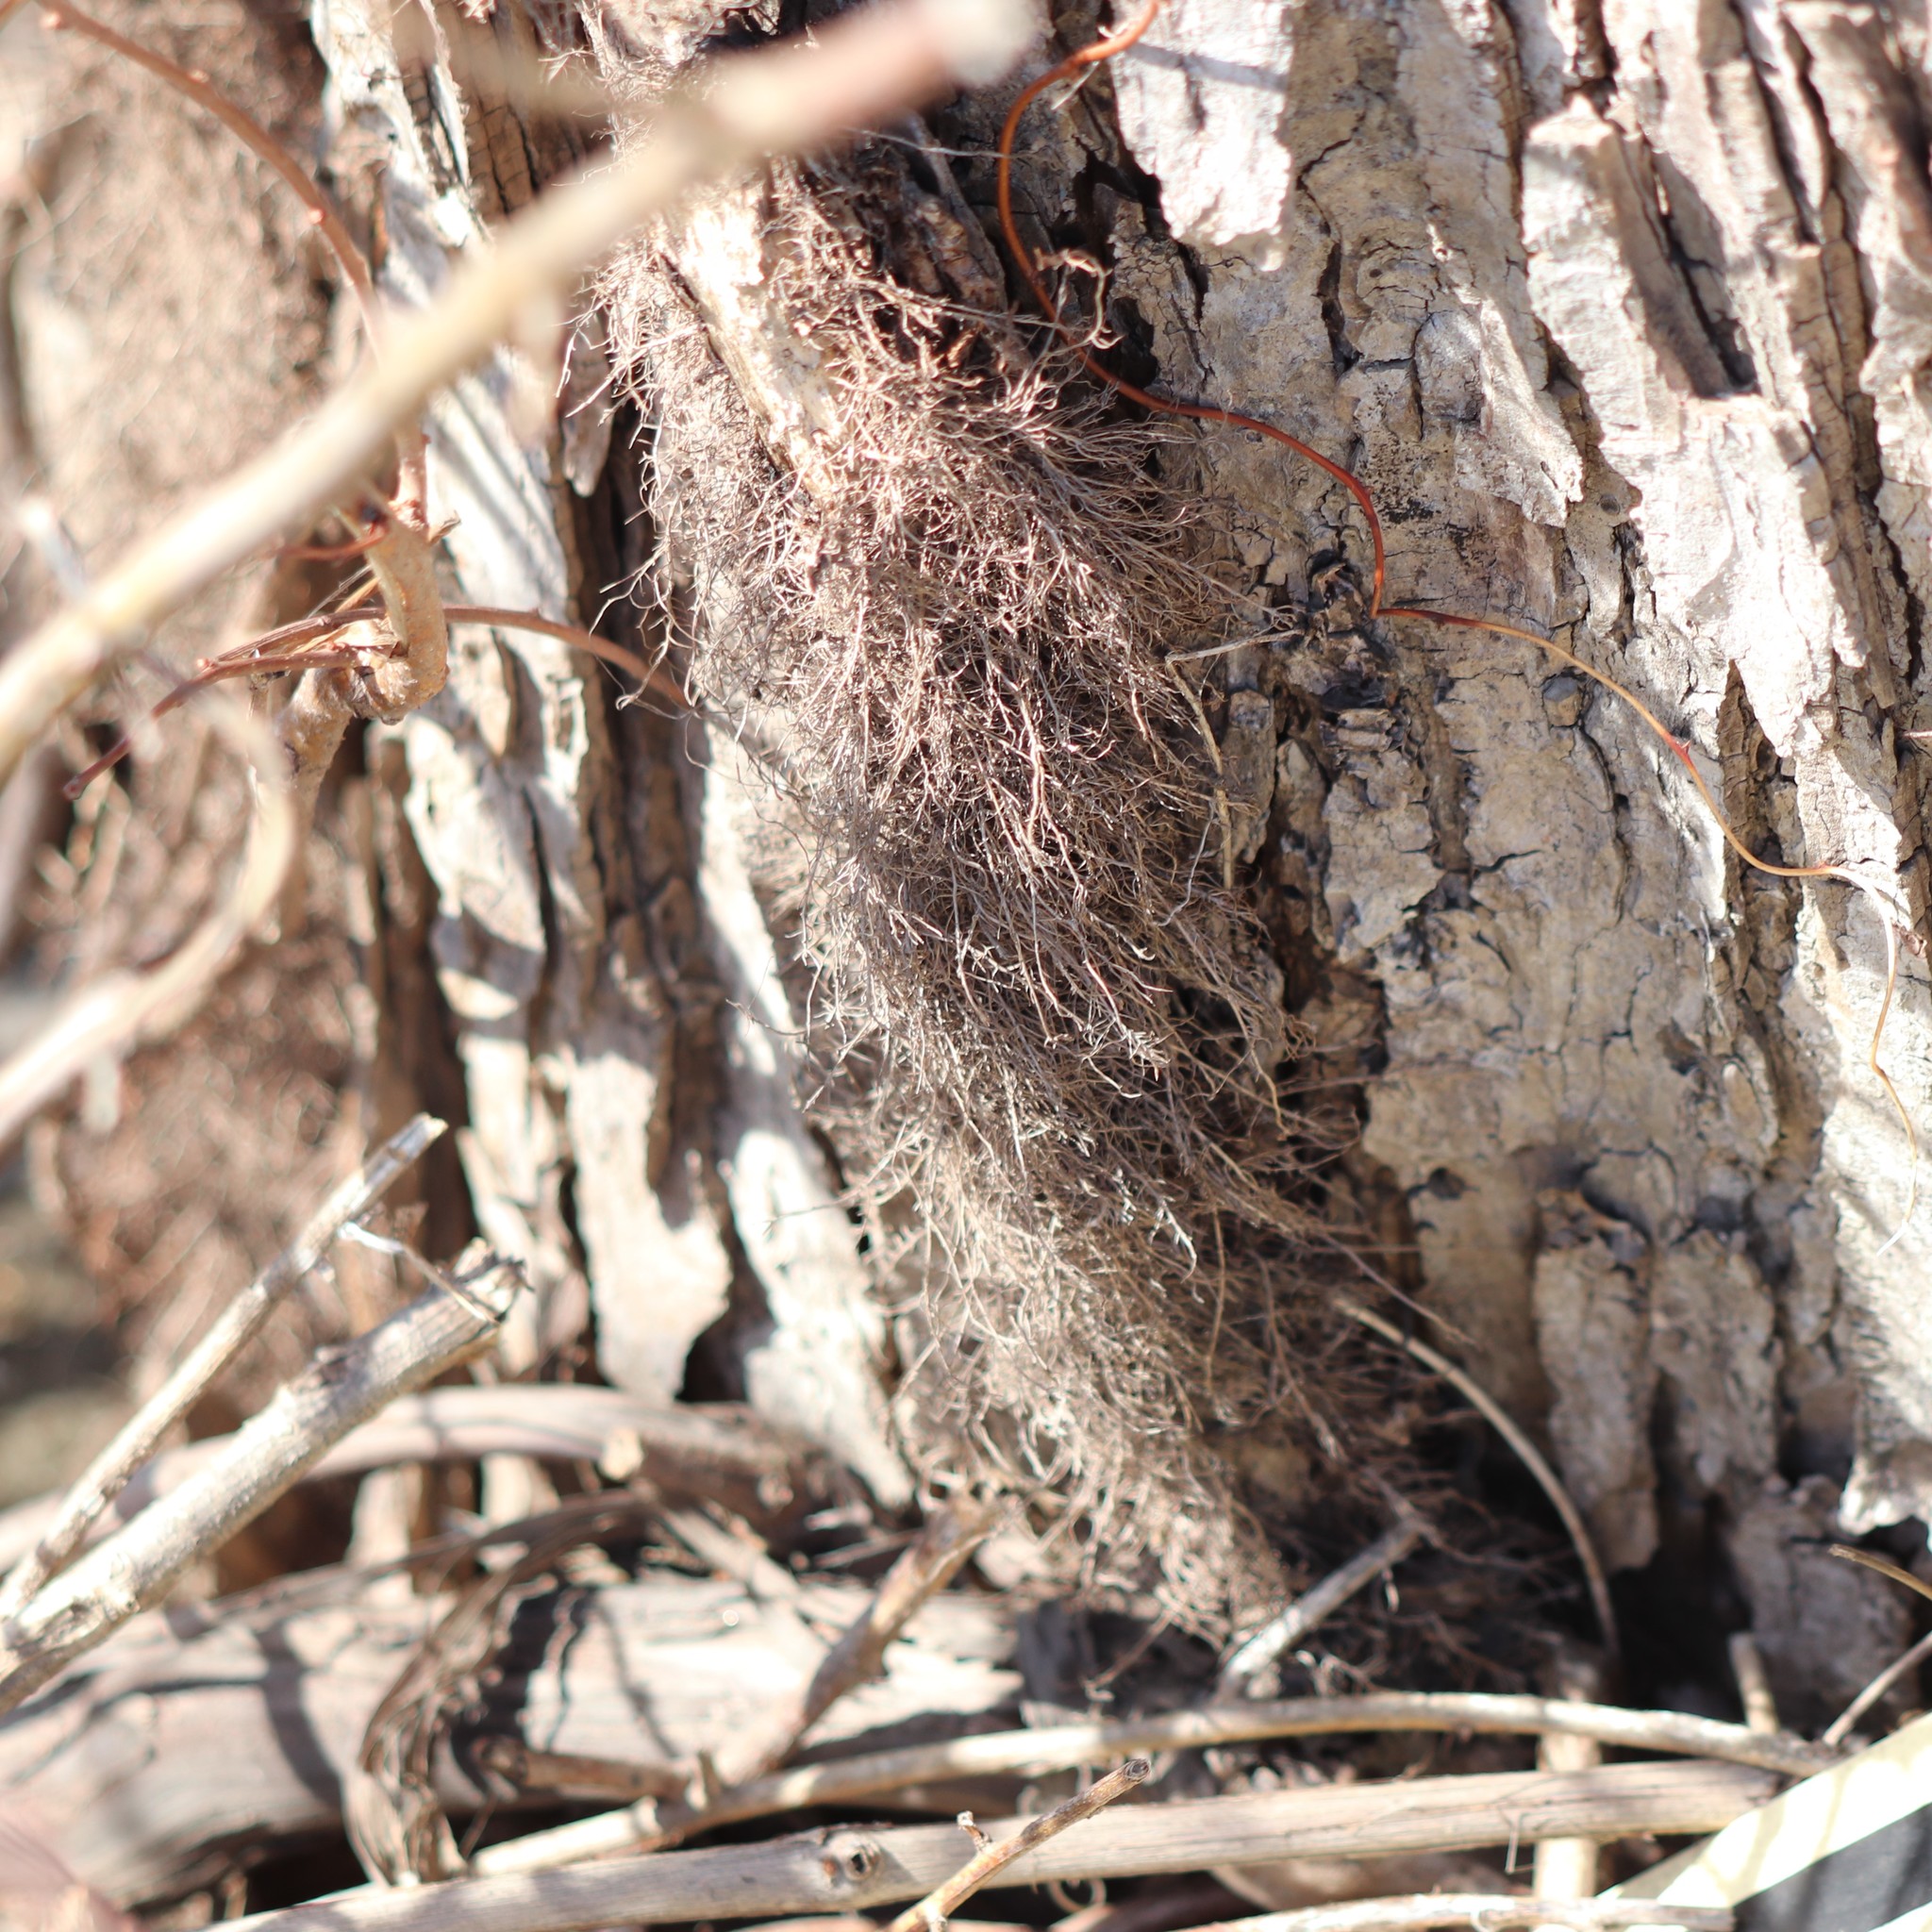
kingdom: Plantae
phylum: Tracheophyta
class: Magnoliopsida
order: Sapindales
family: Anacardiaceae
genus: Toxicodendron
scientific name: Toxicodendron radicans
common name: Poison ivy
